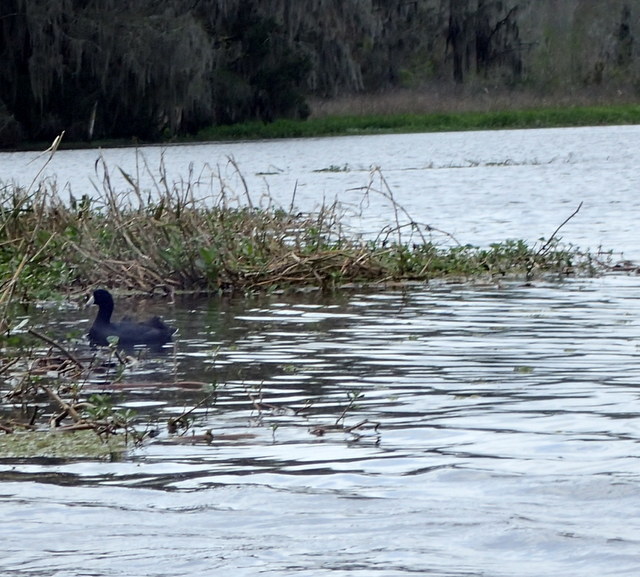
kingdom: Animalia
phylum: Chordata
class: Aves
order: Gruiformes
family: Rallidae
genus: Fulica
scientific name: Fulica americana
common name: American coot
